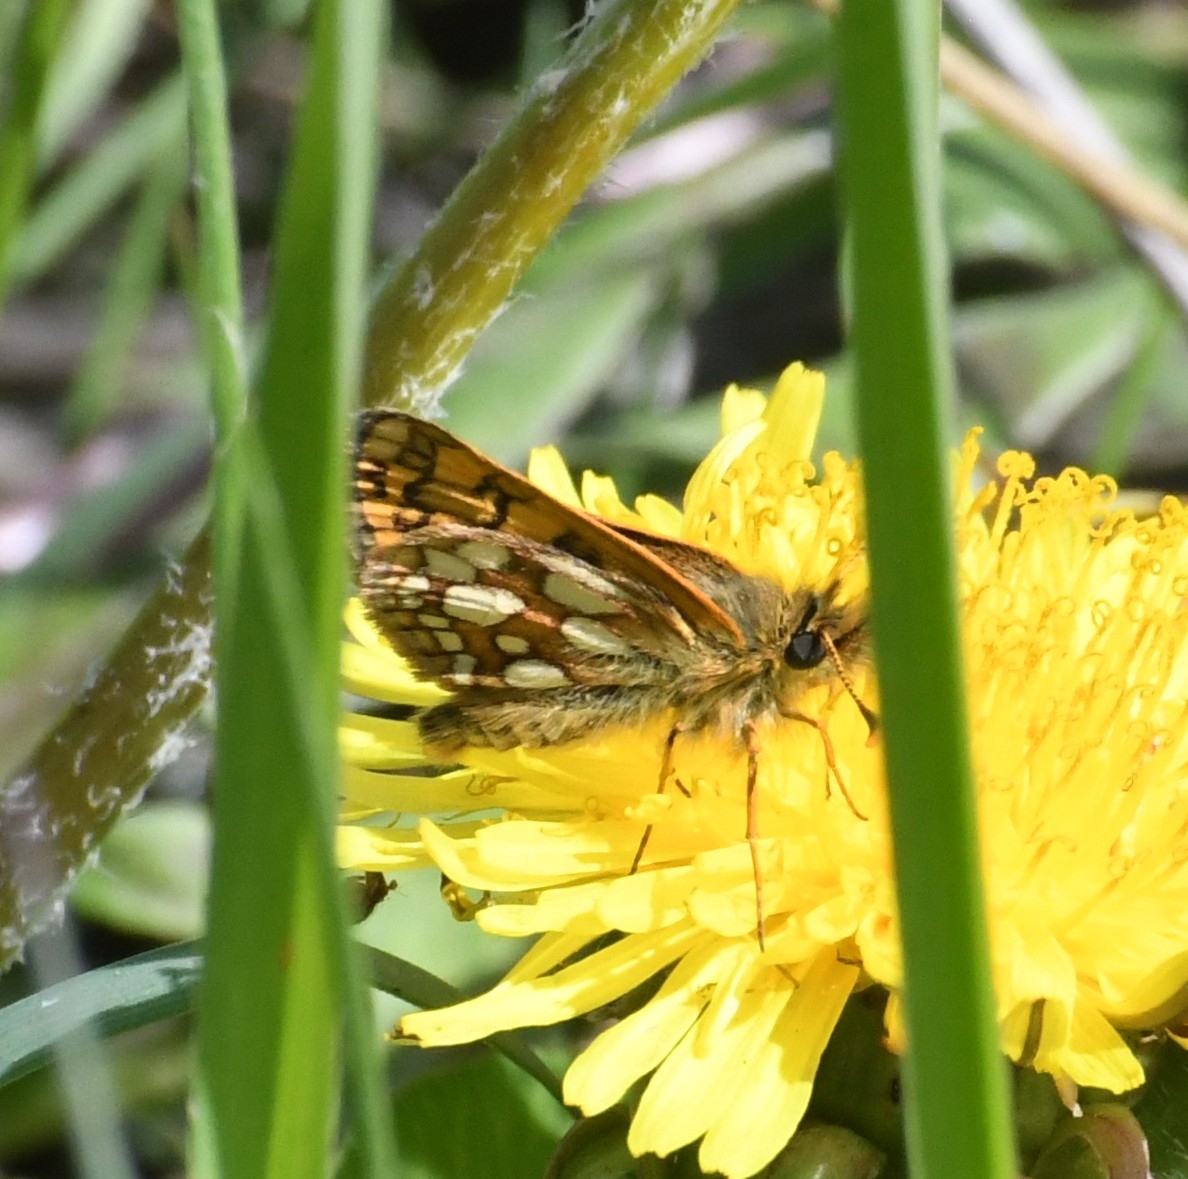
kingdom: Animalia
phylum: Arthropoda
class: Insecta
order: Lepidoptera
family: Hesperiidae
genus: Carterocephalus
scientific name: Carterocephalus skada
